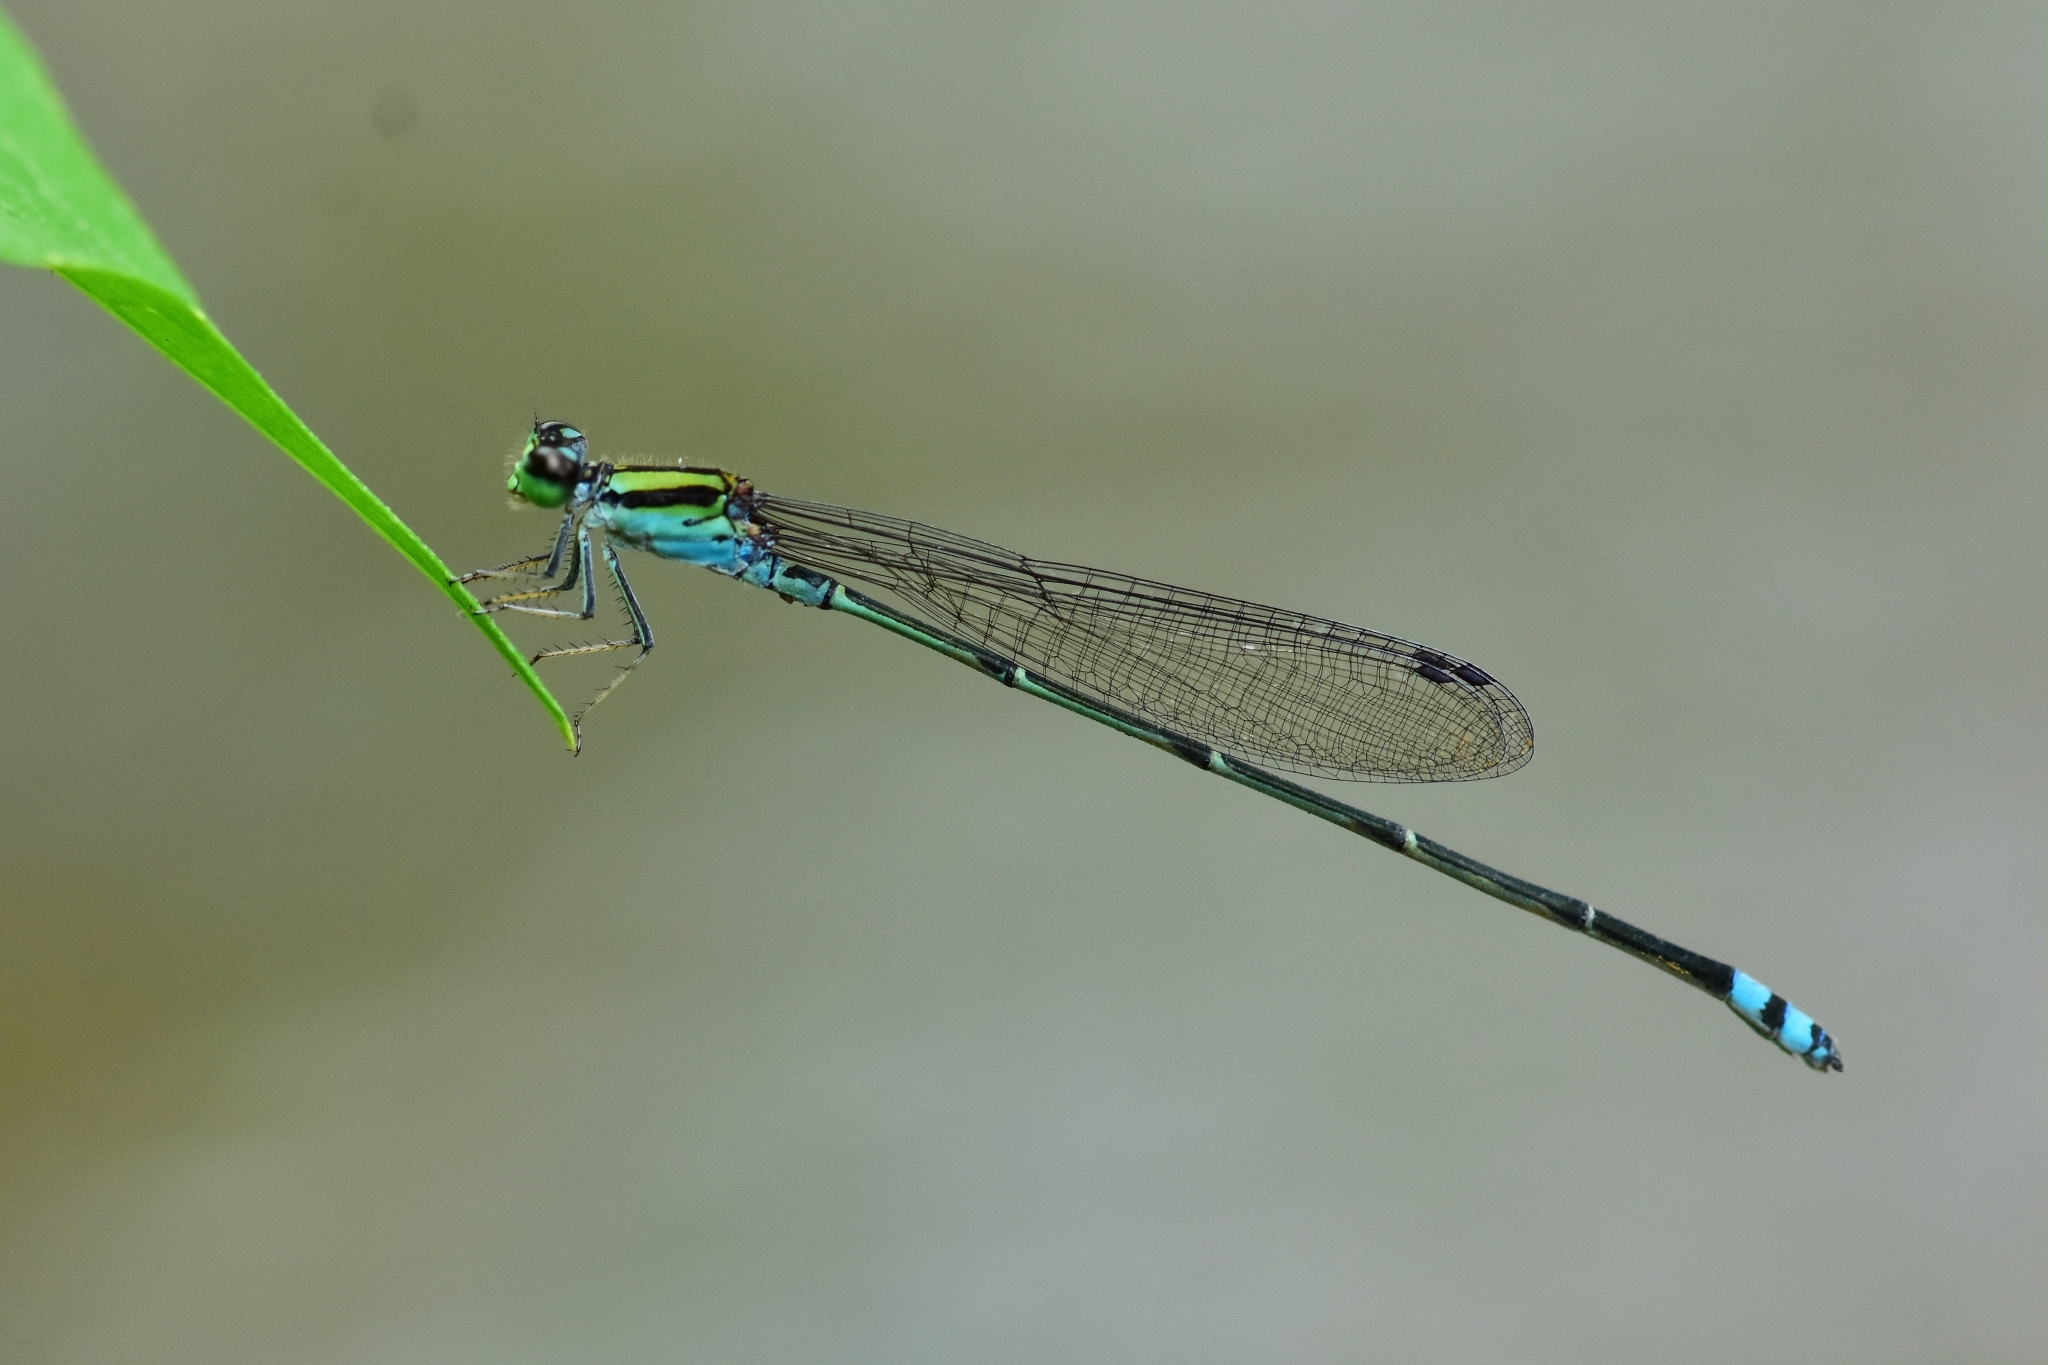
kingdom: Animalia
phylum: Arthropoda
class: Insecta
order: Odonata
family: Coenagrionidae
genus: Pseudagrion
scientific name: Pseudagrion indicum
